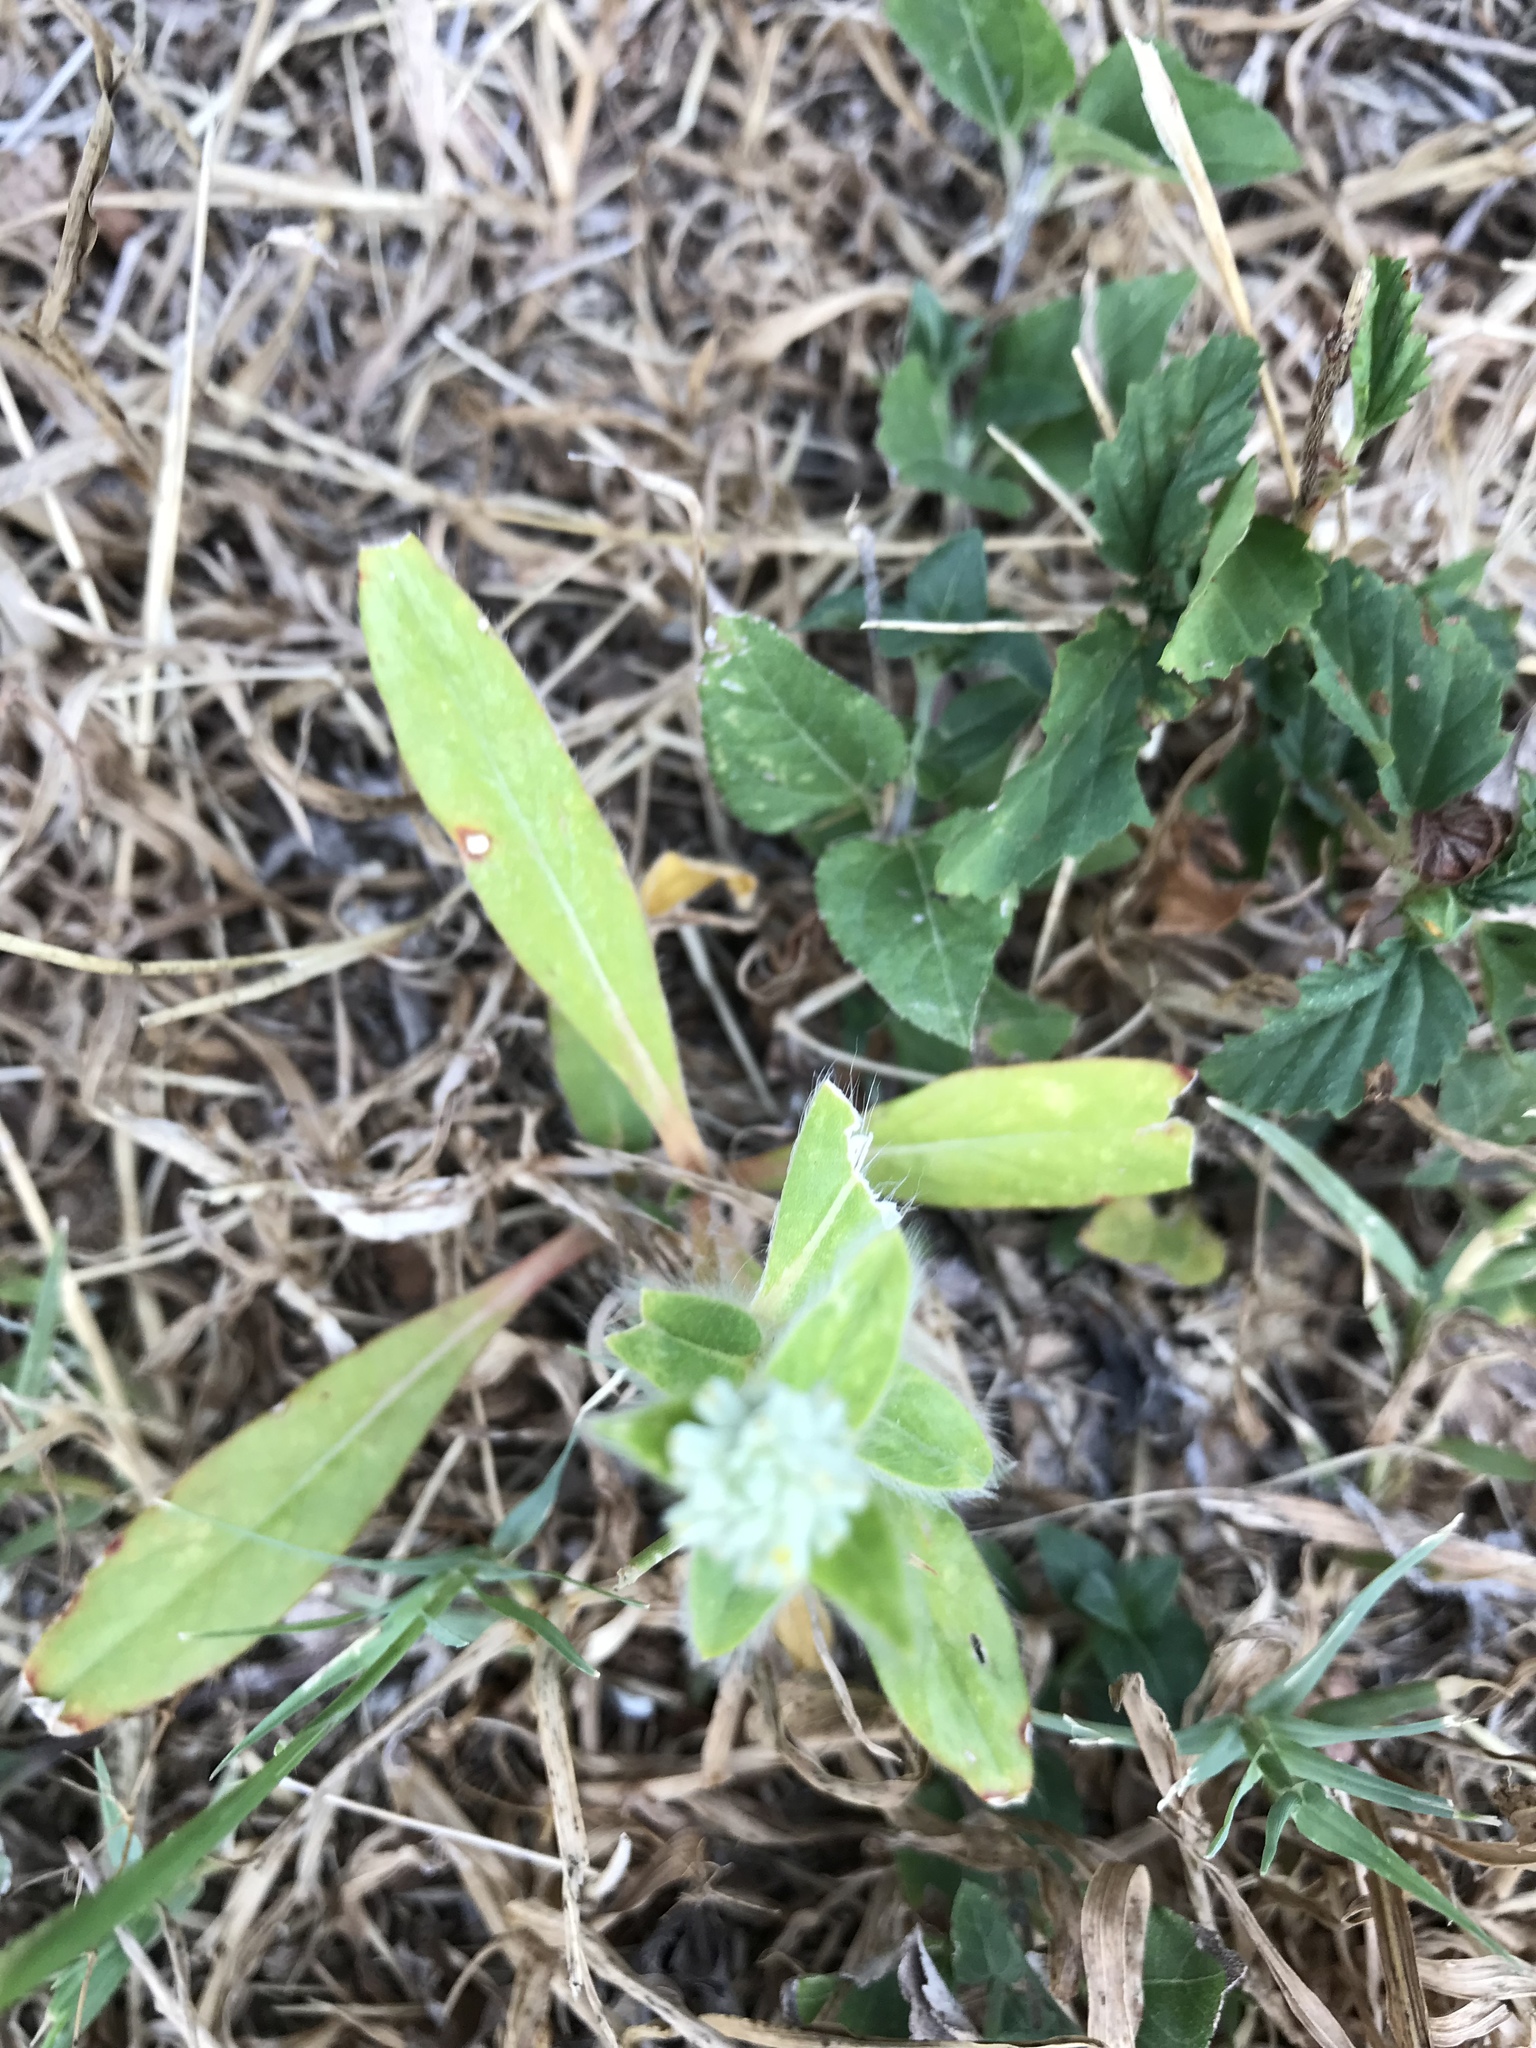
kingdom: Plantae
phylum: Tracheophyta
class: Magnoliopsida
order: Caryophyllales
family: Amaranthaceae
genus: Gomphrena
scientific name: Gomphrena serrata
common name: Arrasa con todo
